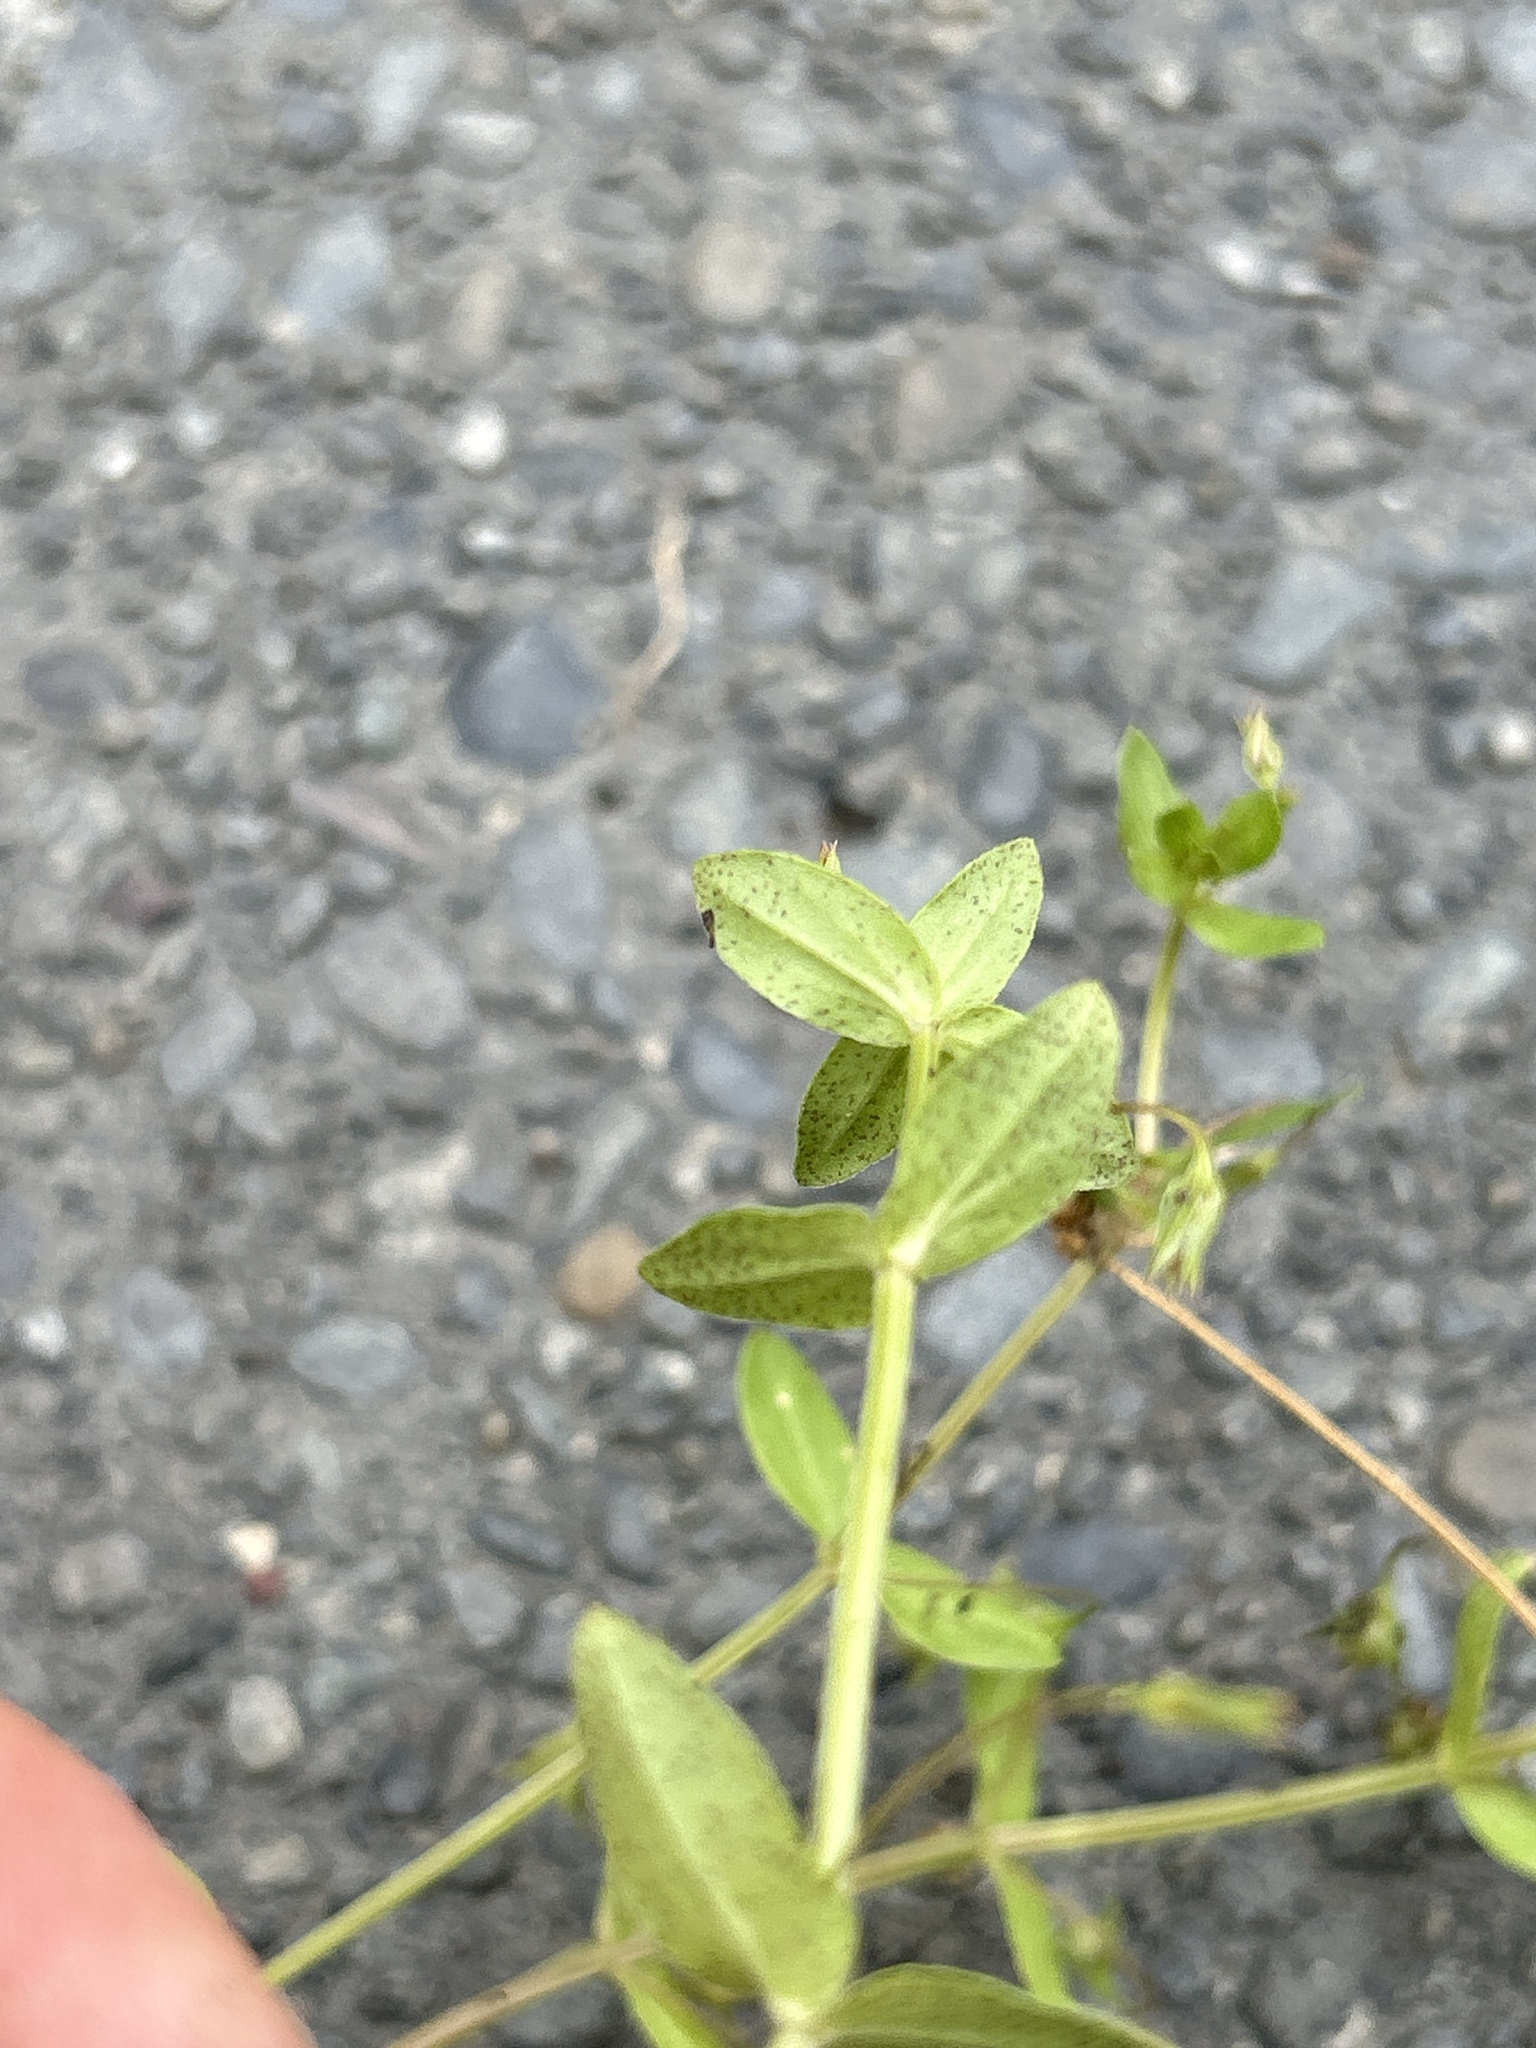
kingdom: Plantae
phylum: Tracheophyta
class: Magnoliopsida
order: Ericales
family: Primulaceae
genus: Lysimachia
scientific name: Lysimachia arvensis
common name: Scarlet pimpernel
